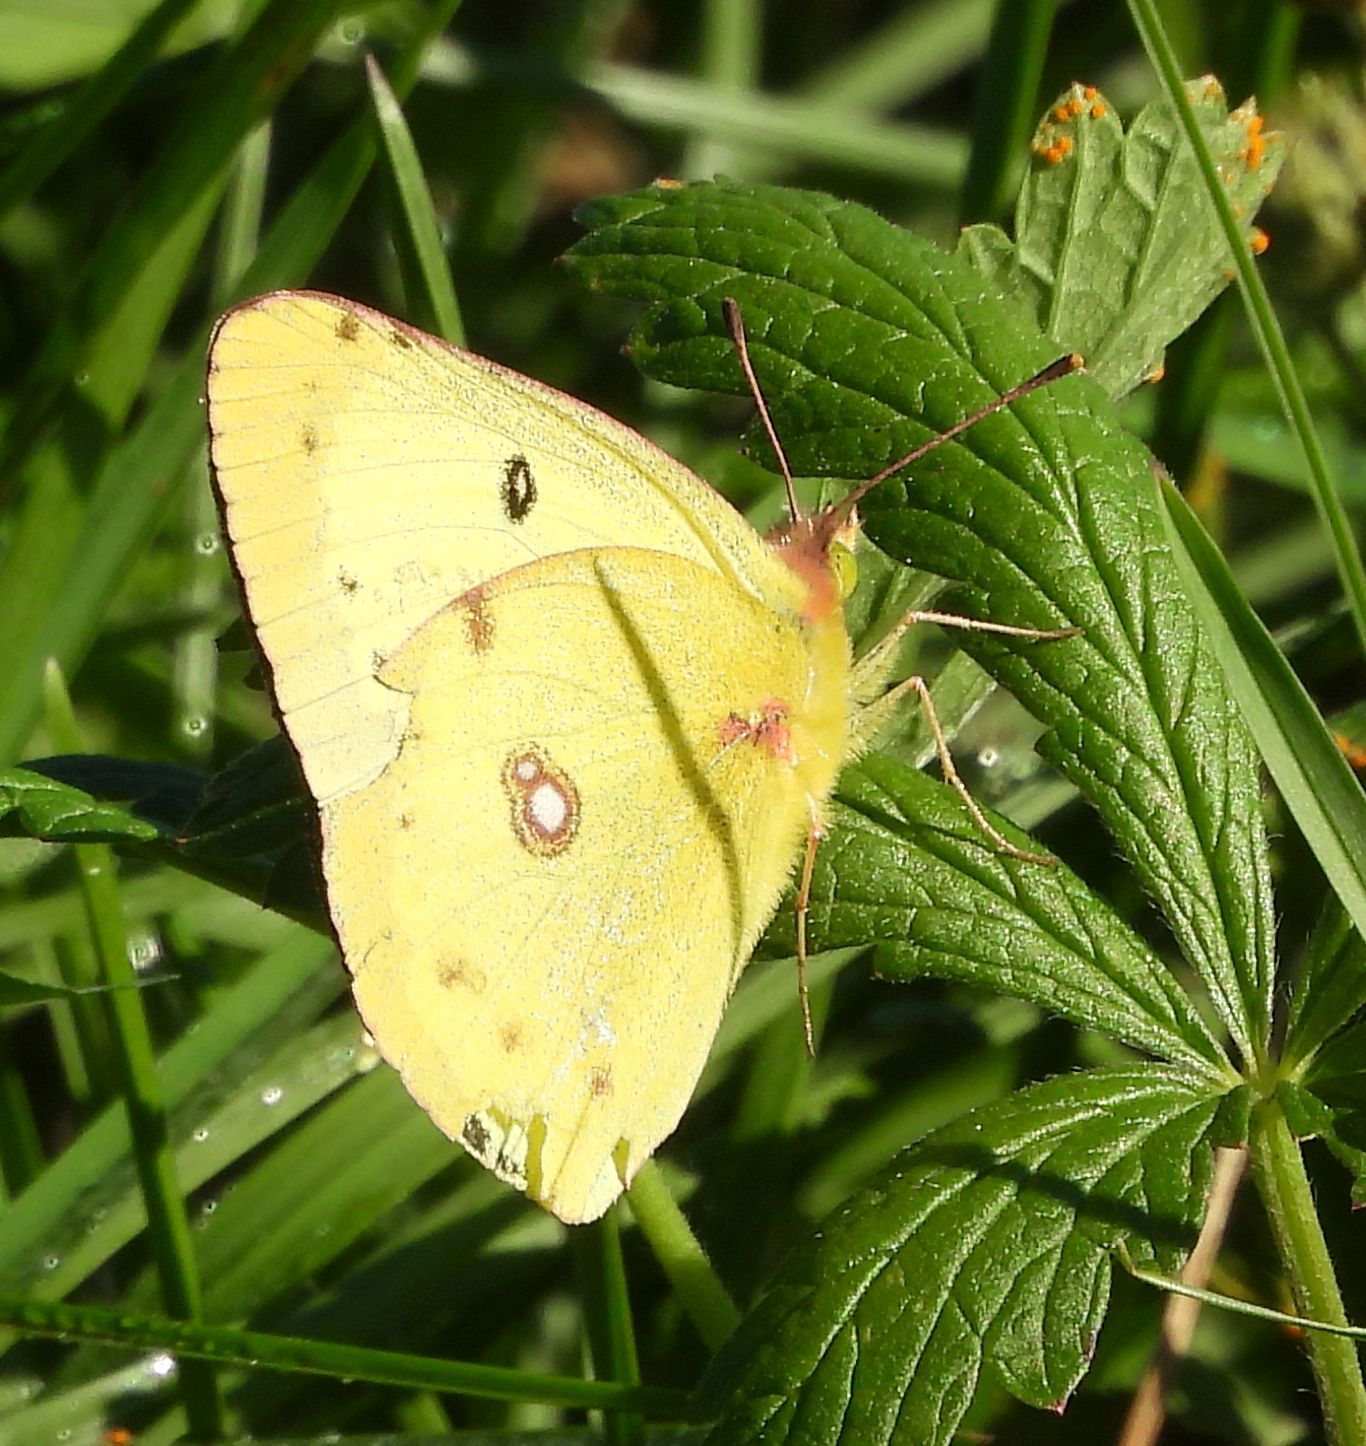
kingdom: Animalia
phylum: Arthropoda
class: Insecta
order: Lepidoptera
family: Pieridae
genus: Colias
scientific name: Colias philodice
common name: Clouded sulphur
